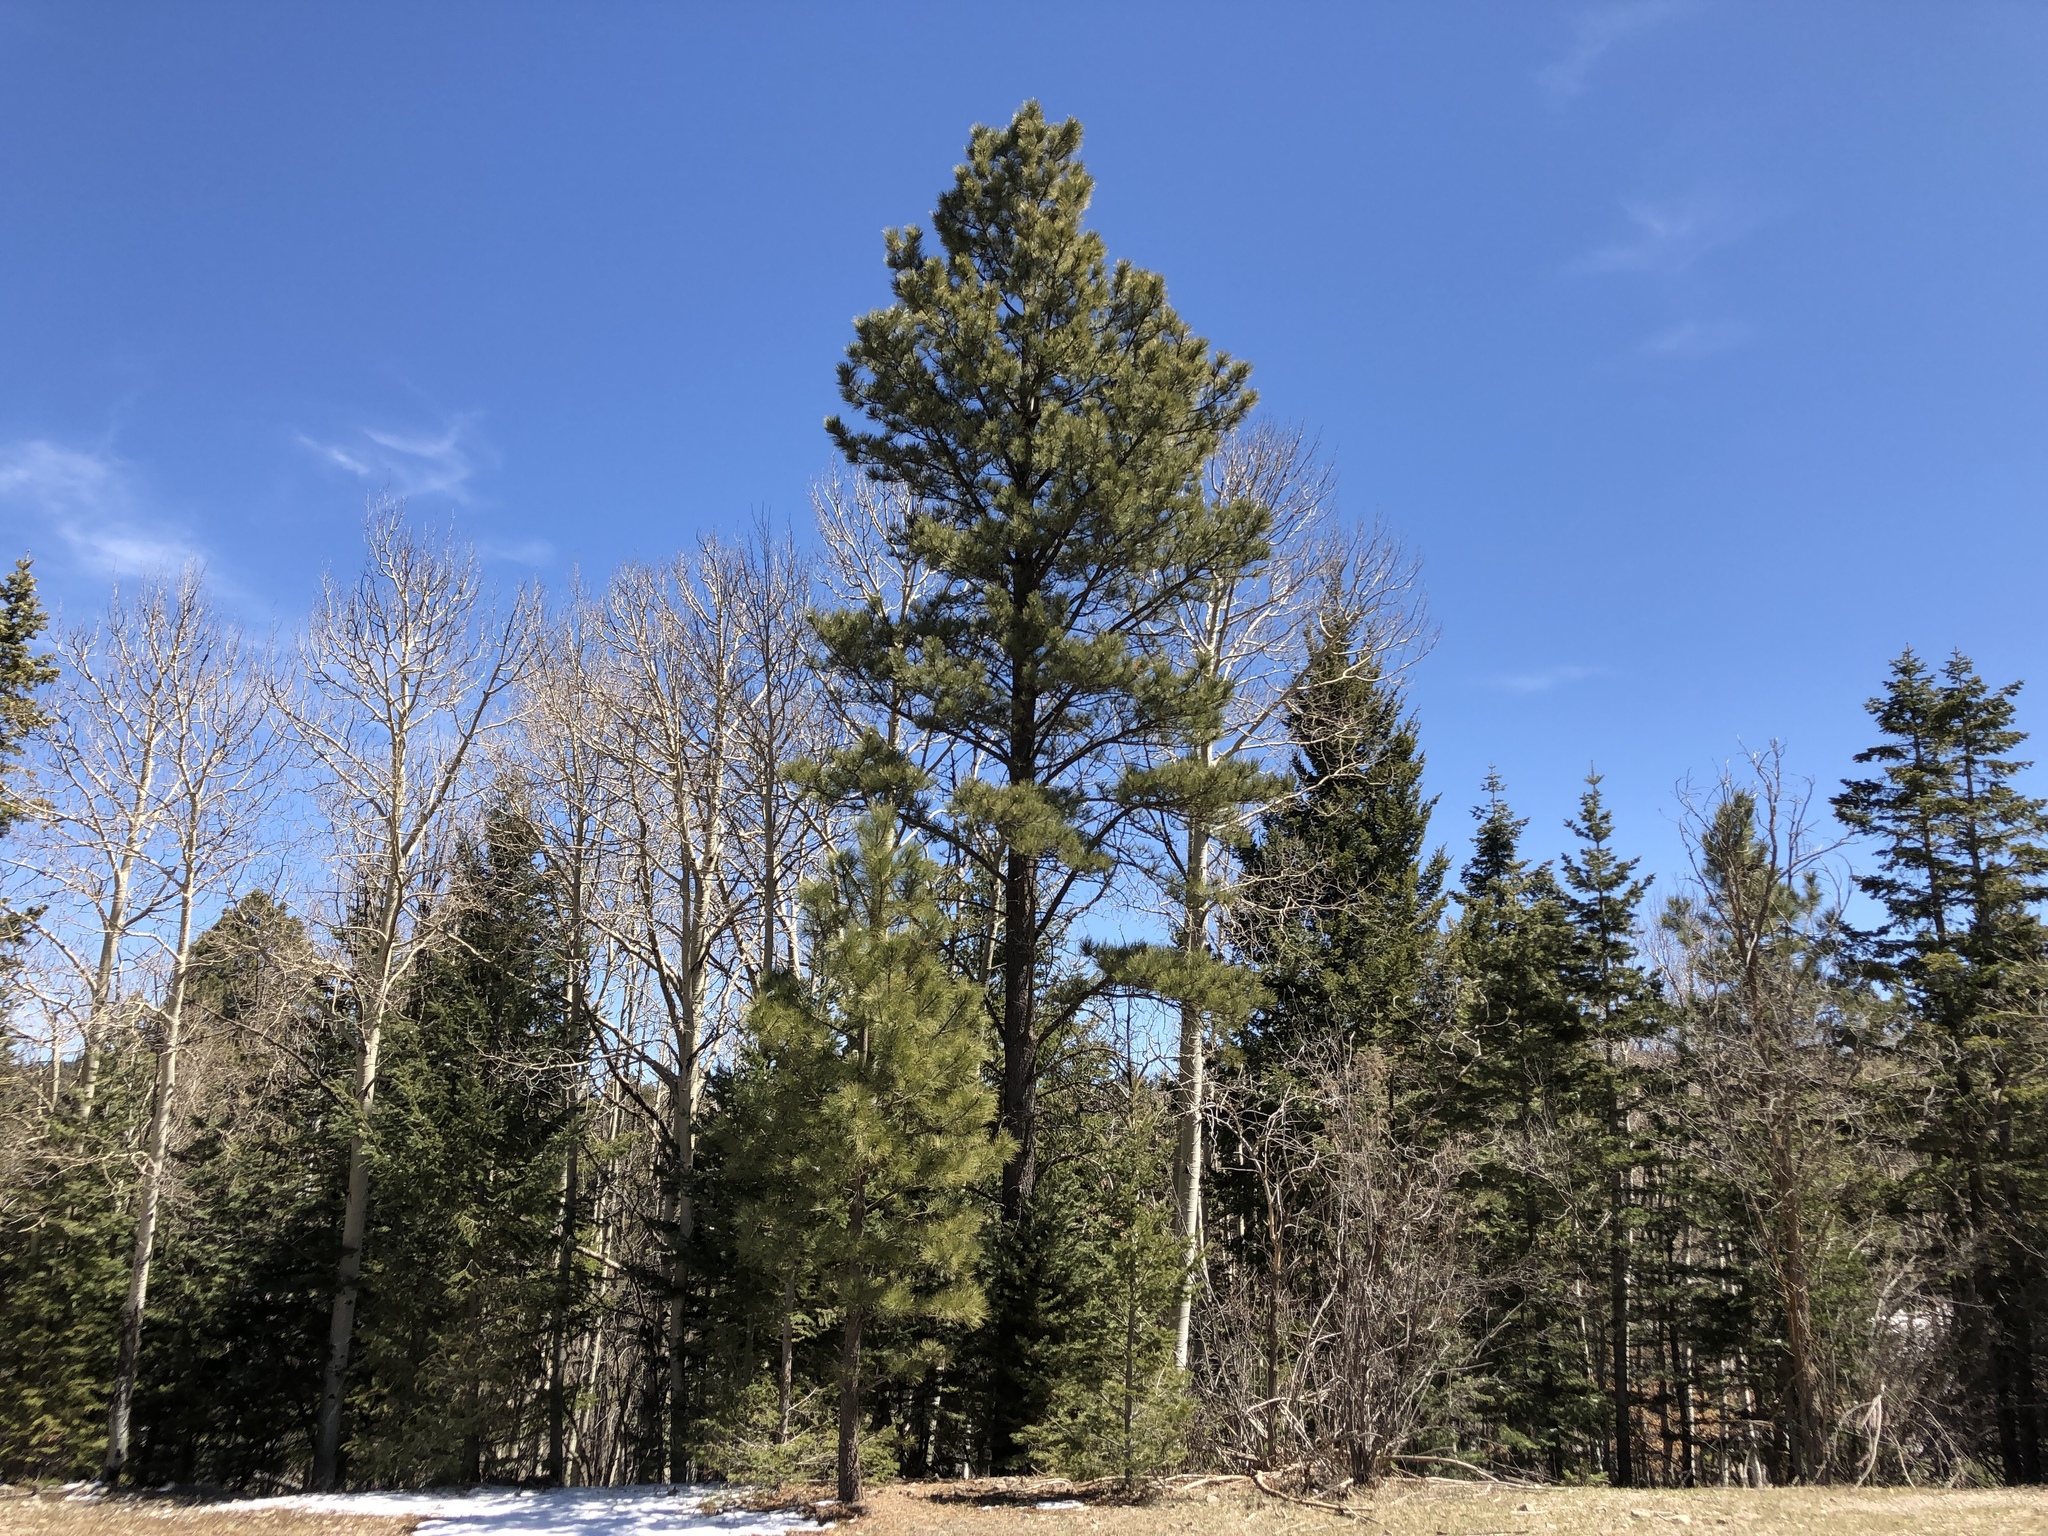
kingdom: Plantae
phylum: Tracheophyta
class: Pinopsida
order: Pinales
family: Pinaceae
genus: Pseudotsuga
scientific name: Pseudotsuga menziesii
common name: Douglas fir
